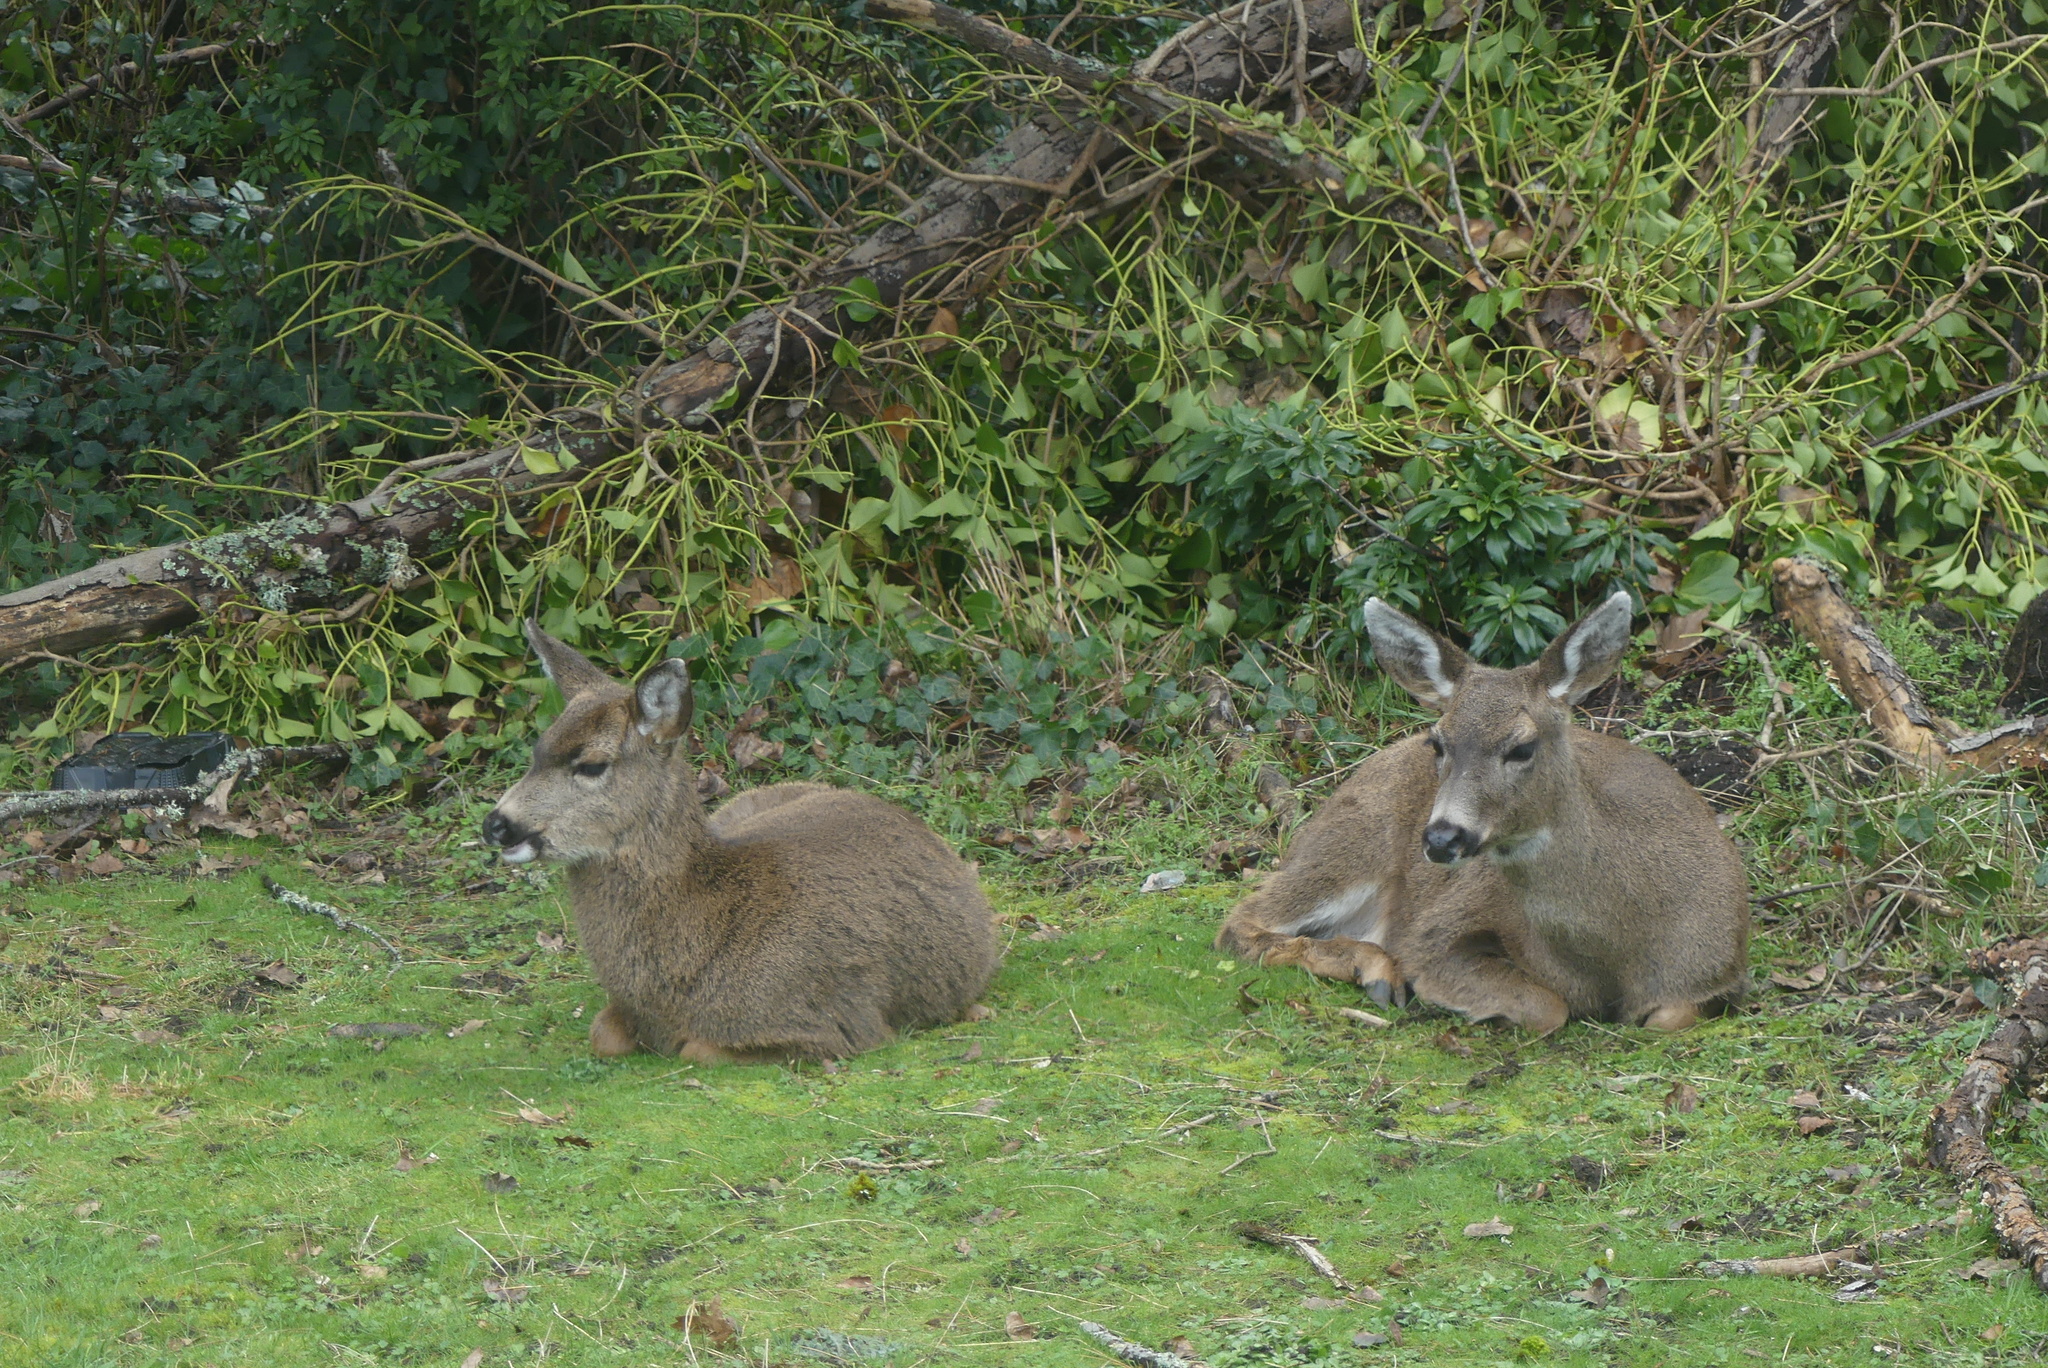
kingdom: Animalia
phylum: Chordata
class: Mammalia
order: Artiodactyla
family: Cervidae
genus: Odocoileus
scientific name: Odocoileus hemionus
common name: Mule deer
